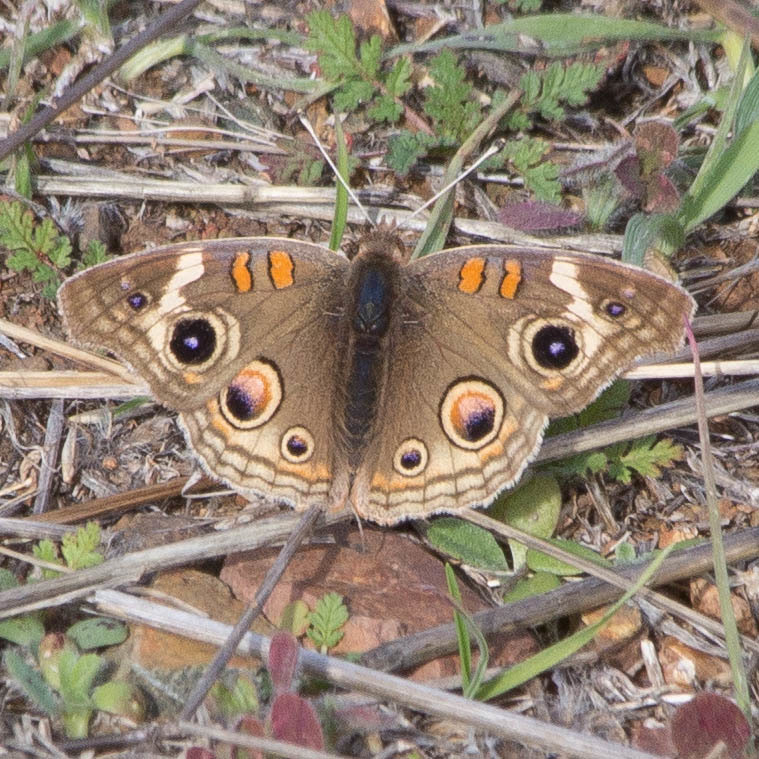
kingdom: Animalia
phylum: Arthropoda
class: Insecta
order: Lepidoptera
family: Nymphalidae
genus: Junonia
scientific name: Junonia grisea
